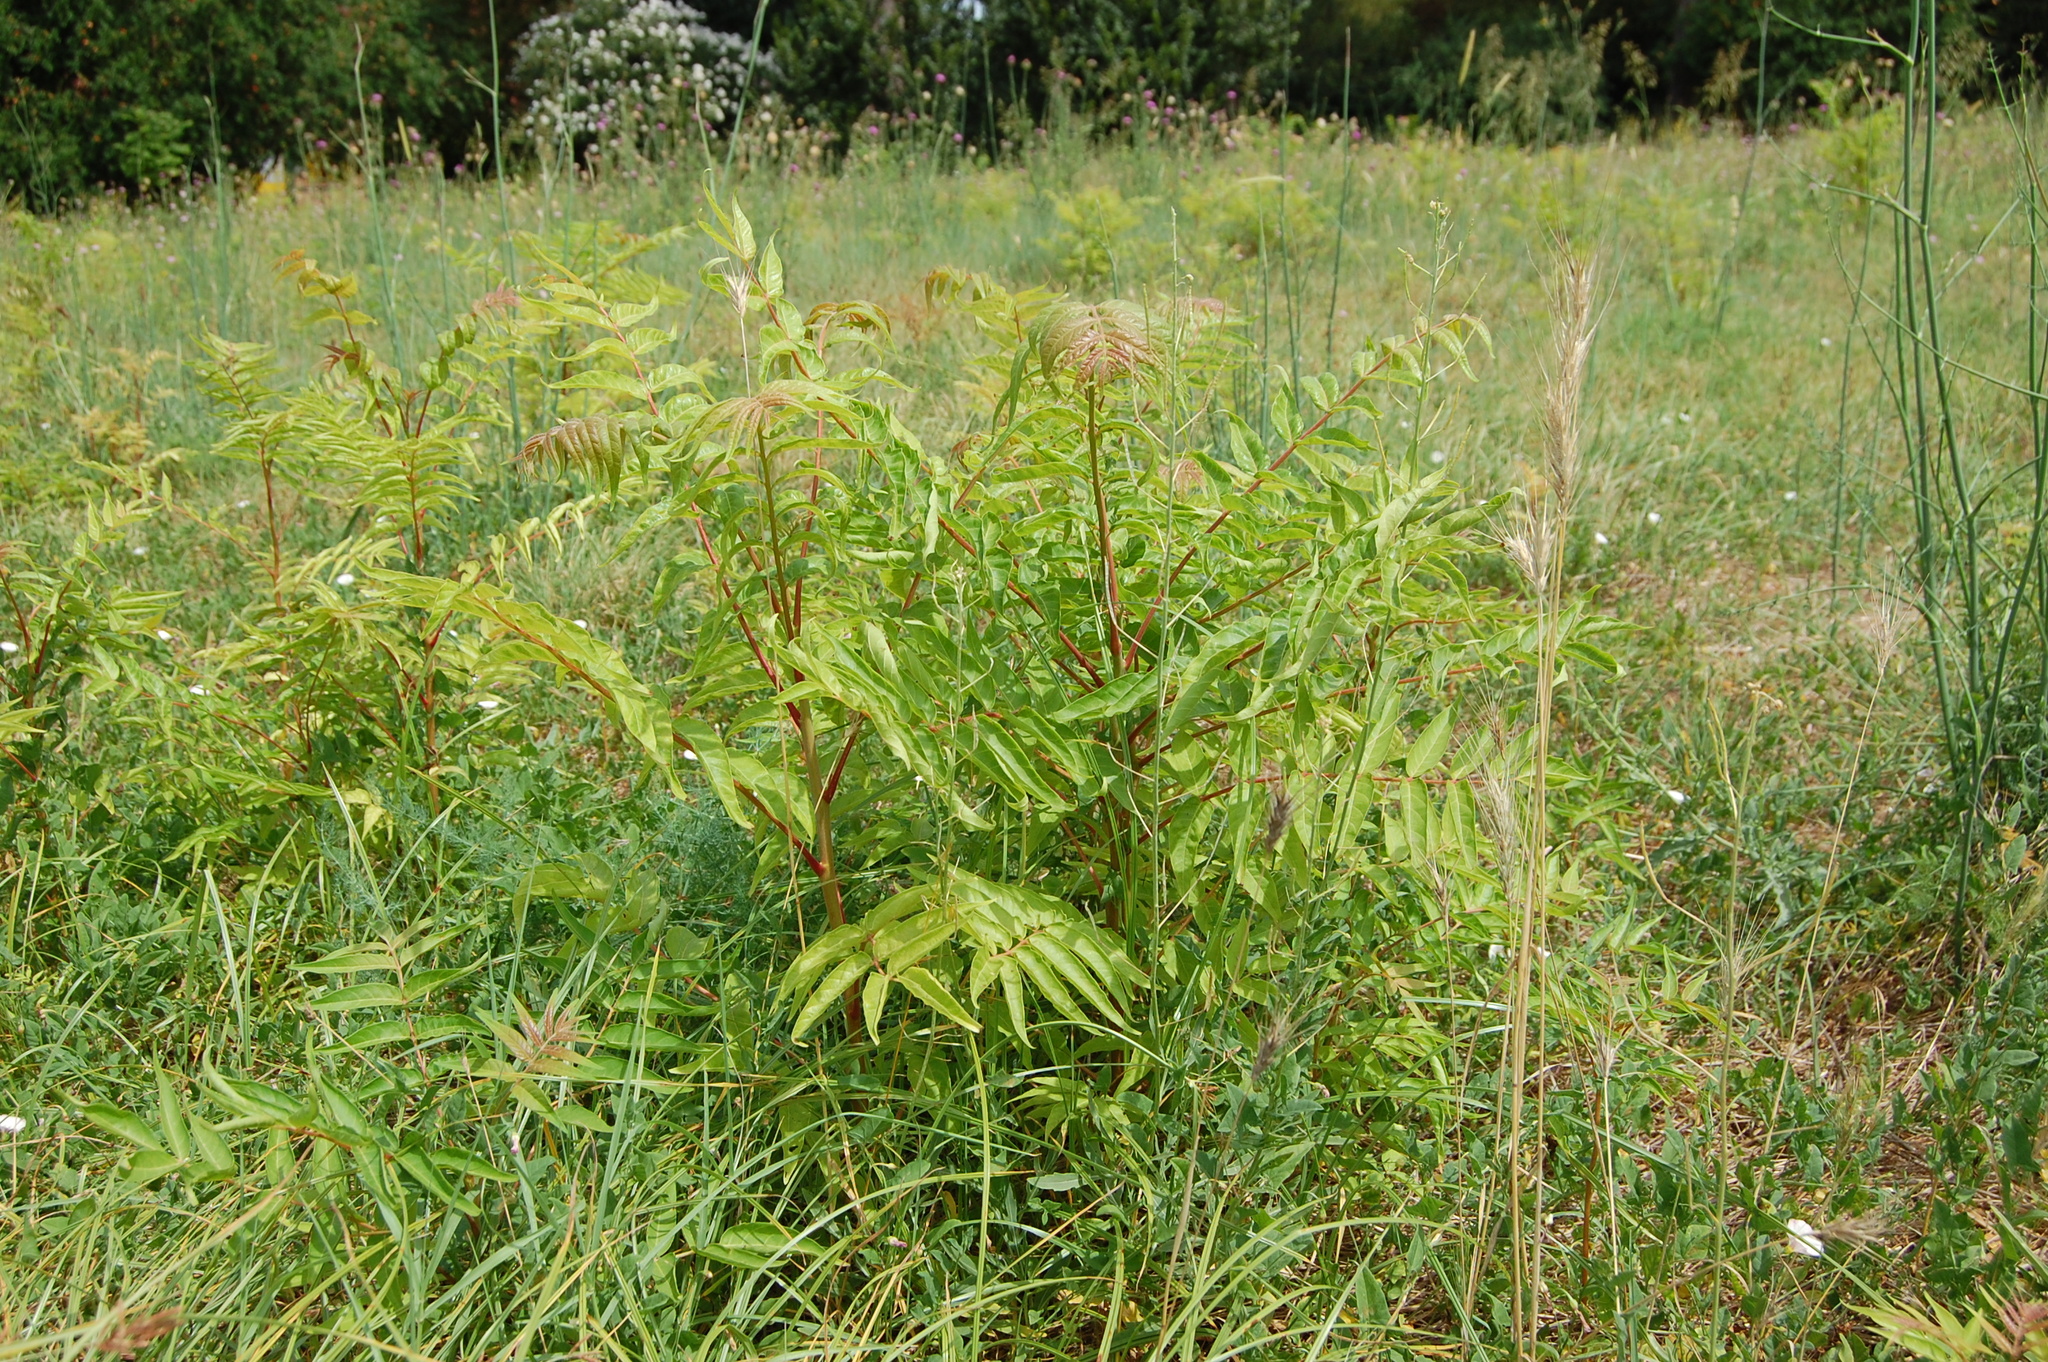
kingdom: Plantae
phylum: Tracheophyta
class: Magnoliopsida
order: Sapindales
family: Simaroubaceae
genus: Ailanthus
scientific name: Ailanthus altissima
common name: Tree-of-heaven
